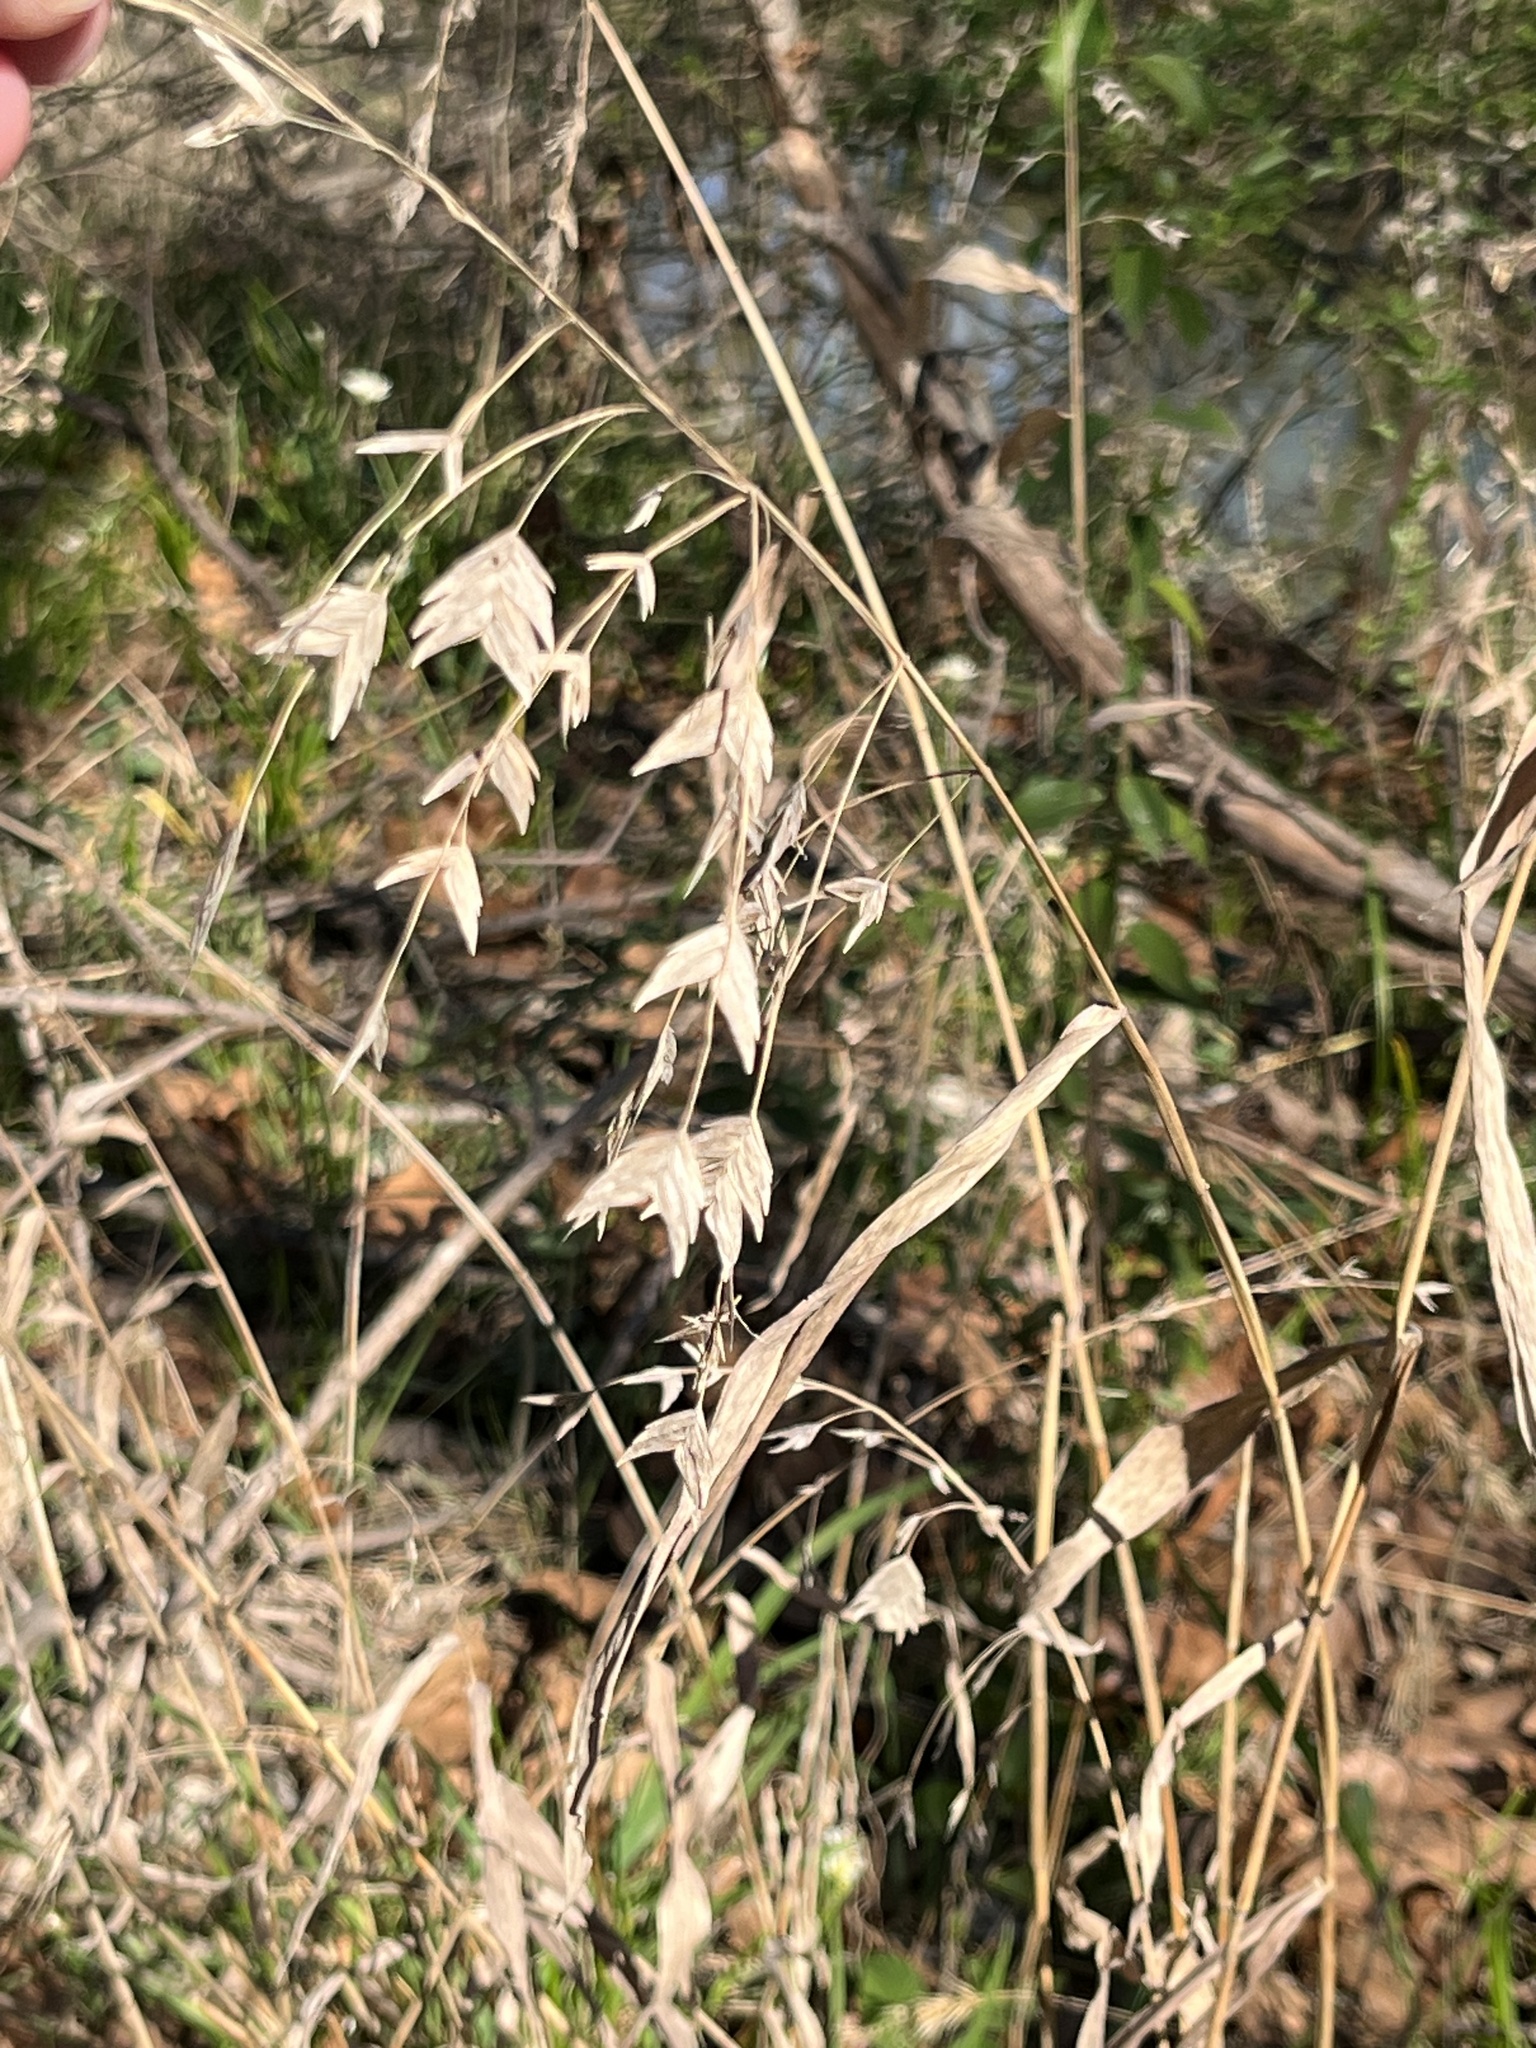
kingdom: Plantae
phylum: Tracheophyta
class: Liliopsida
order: Poales
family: Poaceae
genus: Chasmanthium
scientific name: Chasmanthium latifolium
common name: Broad-leaved chasmanthium
